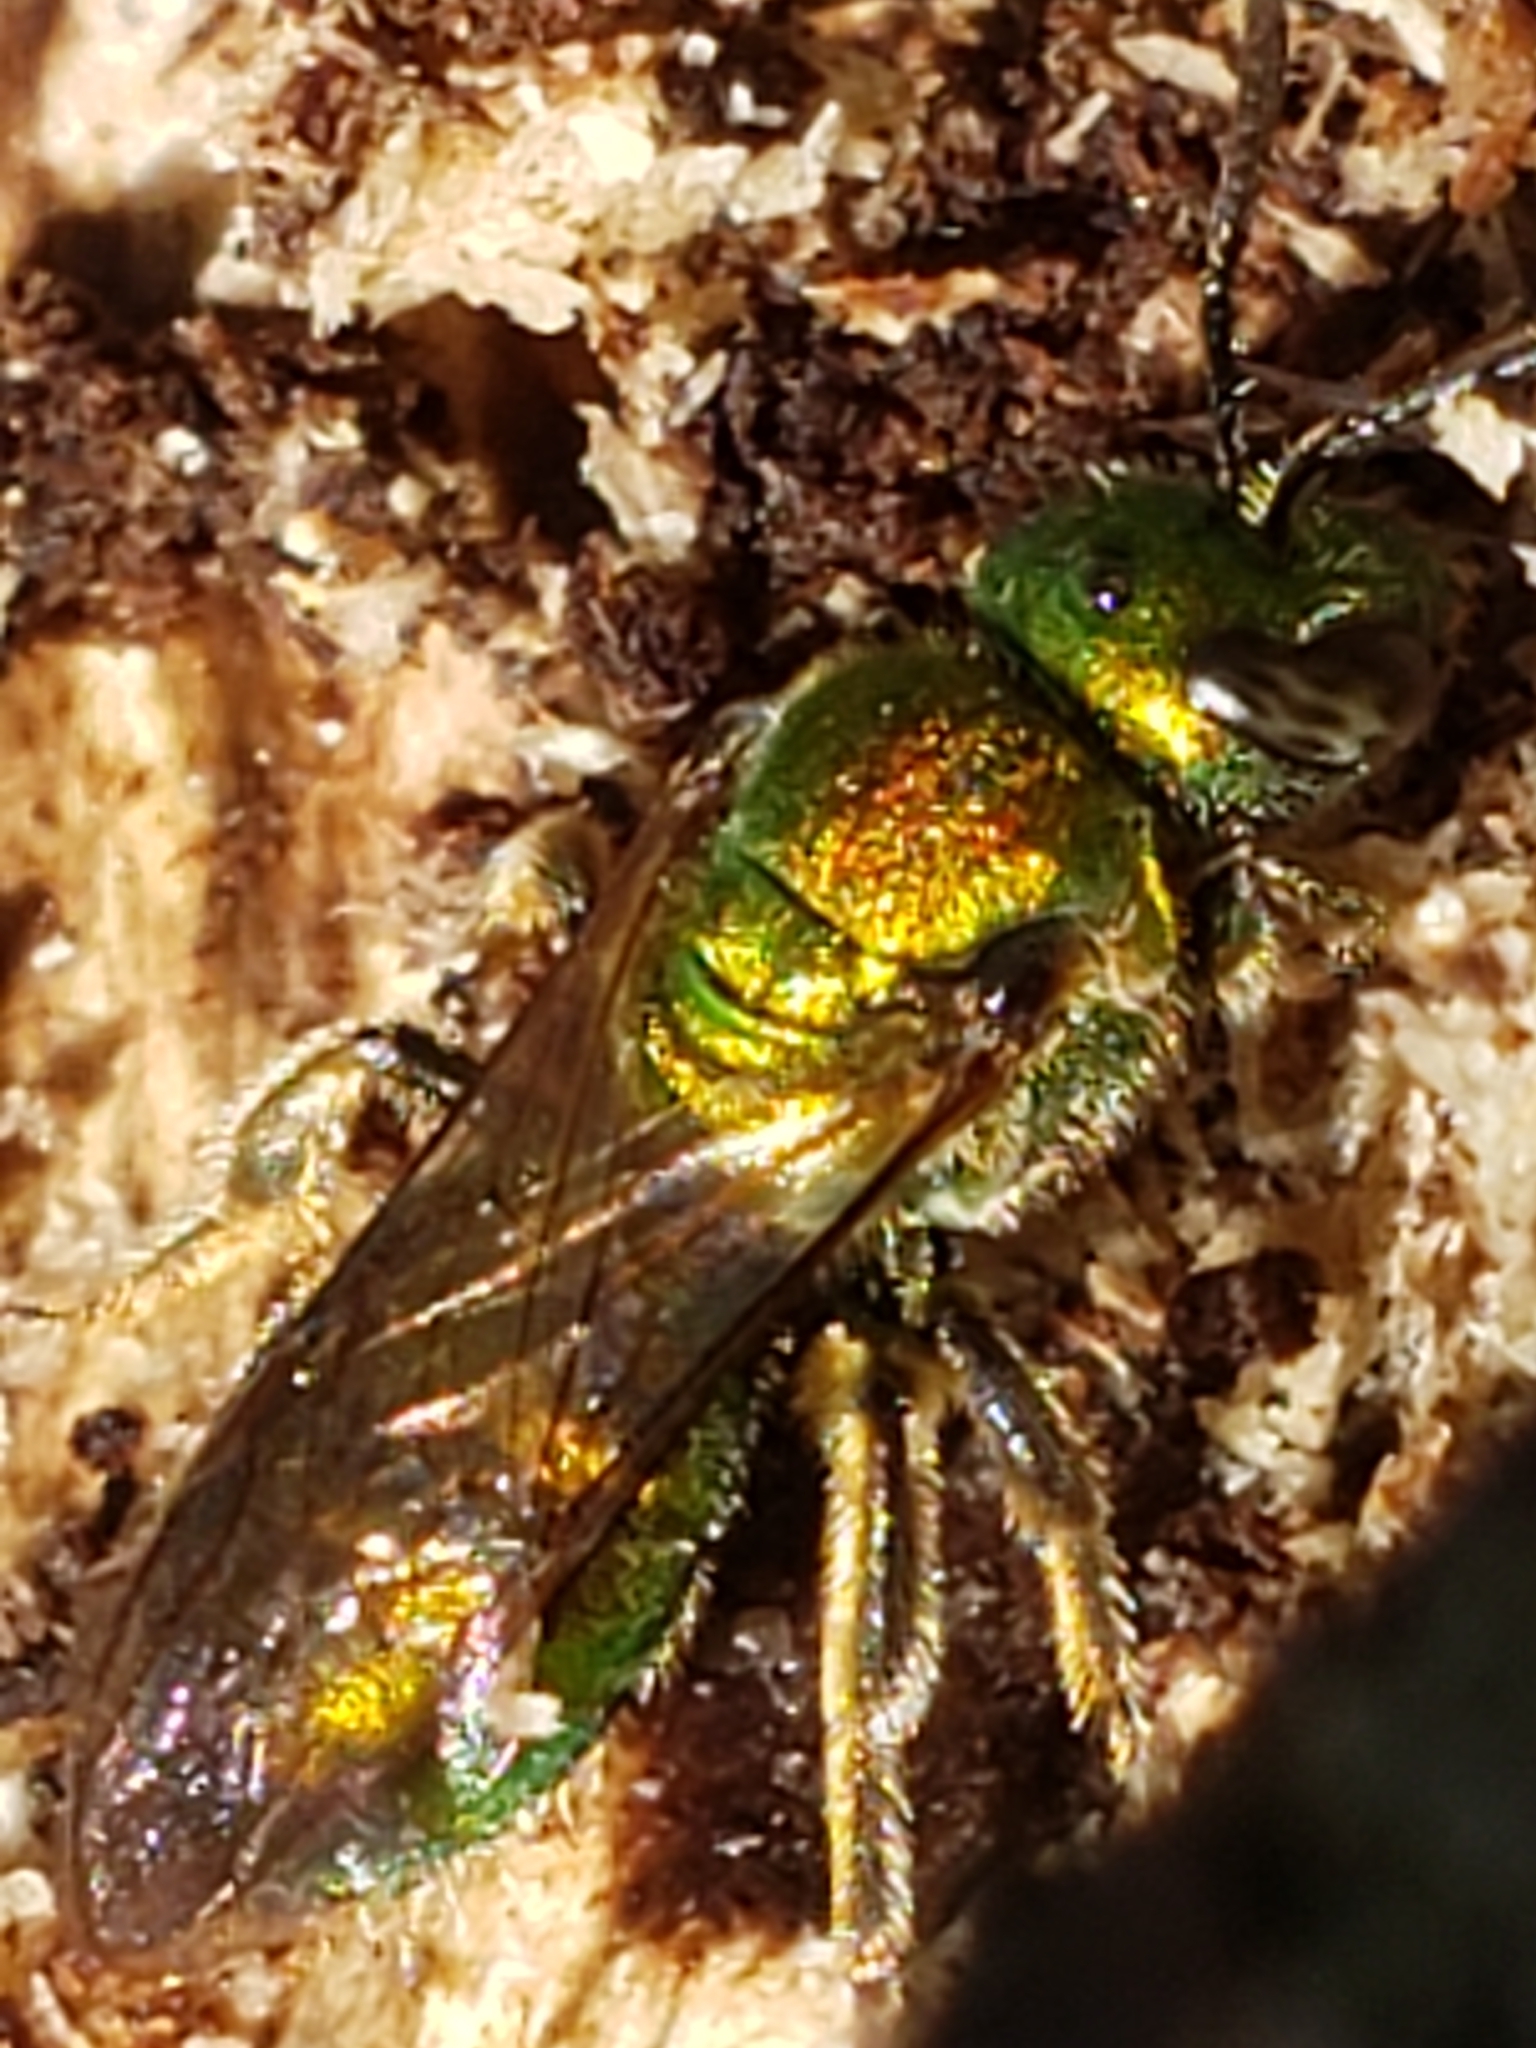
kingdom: Animalia
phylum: Arthropoda
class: Insecta
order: Hymenoptera
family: Halictidae
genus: Augochlora
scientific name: Augochlora pura
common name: Pure green sweat bee
